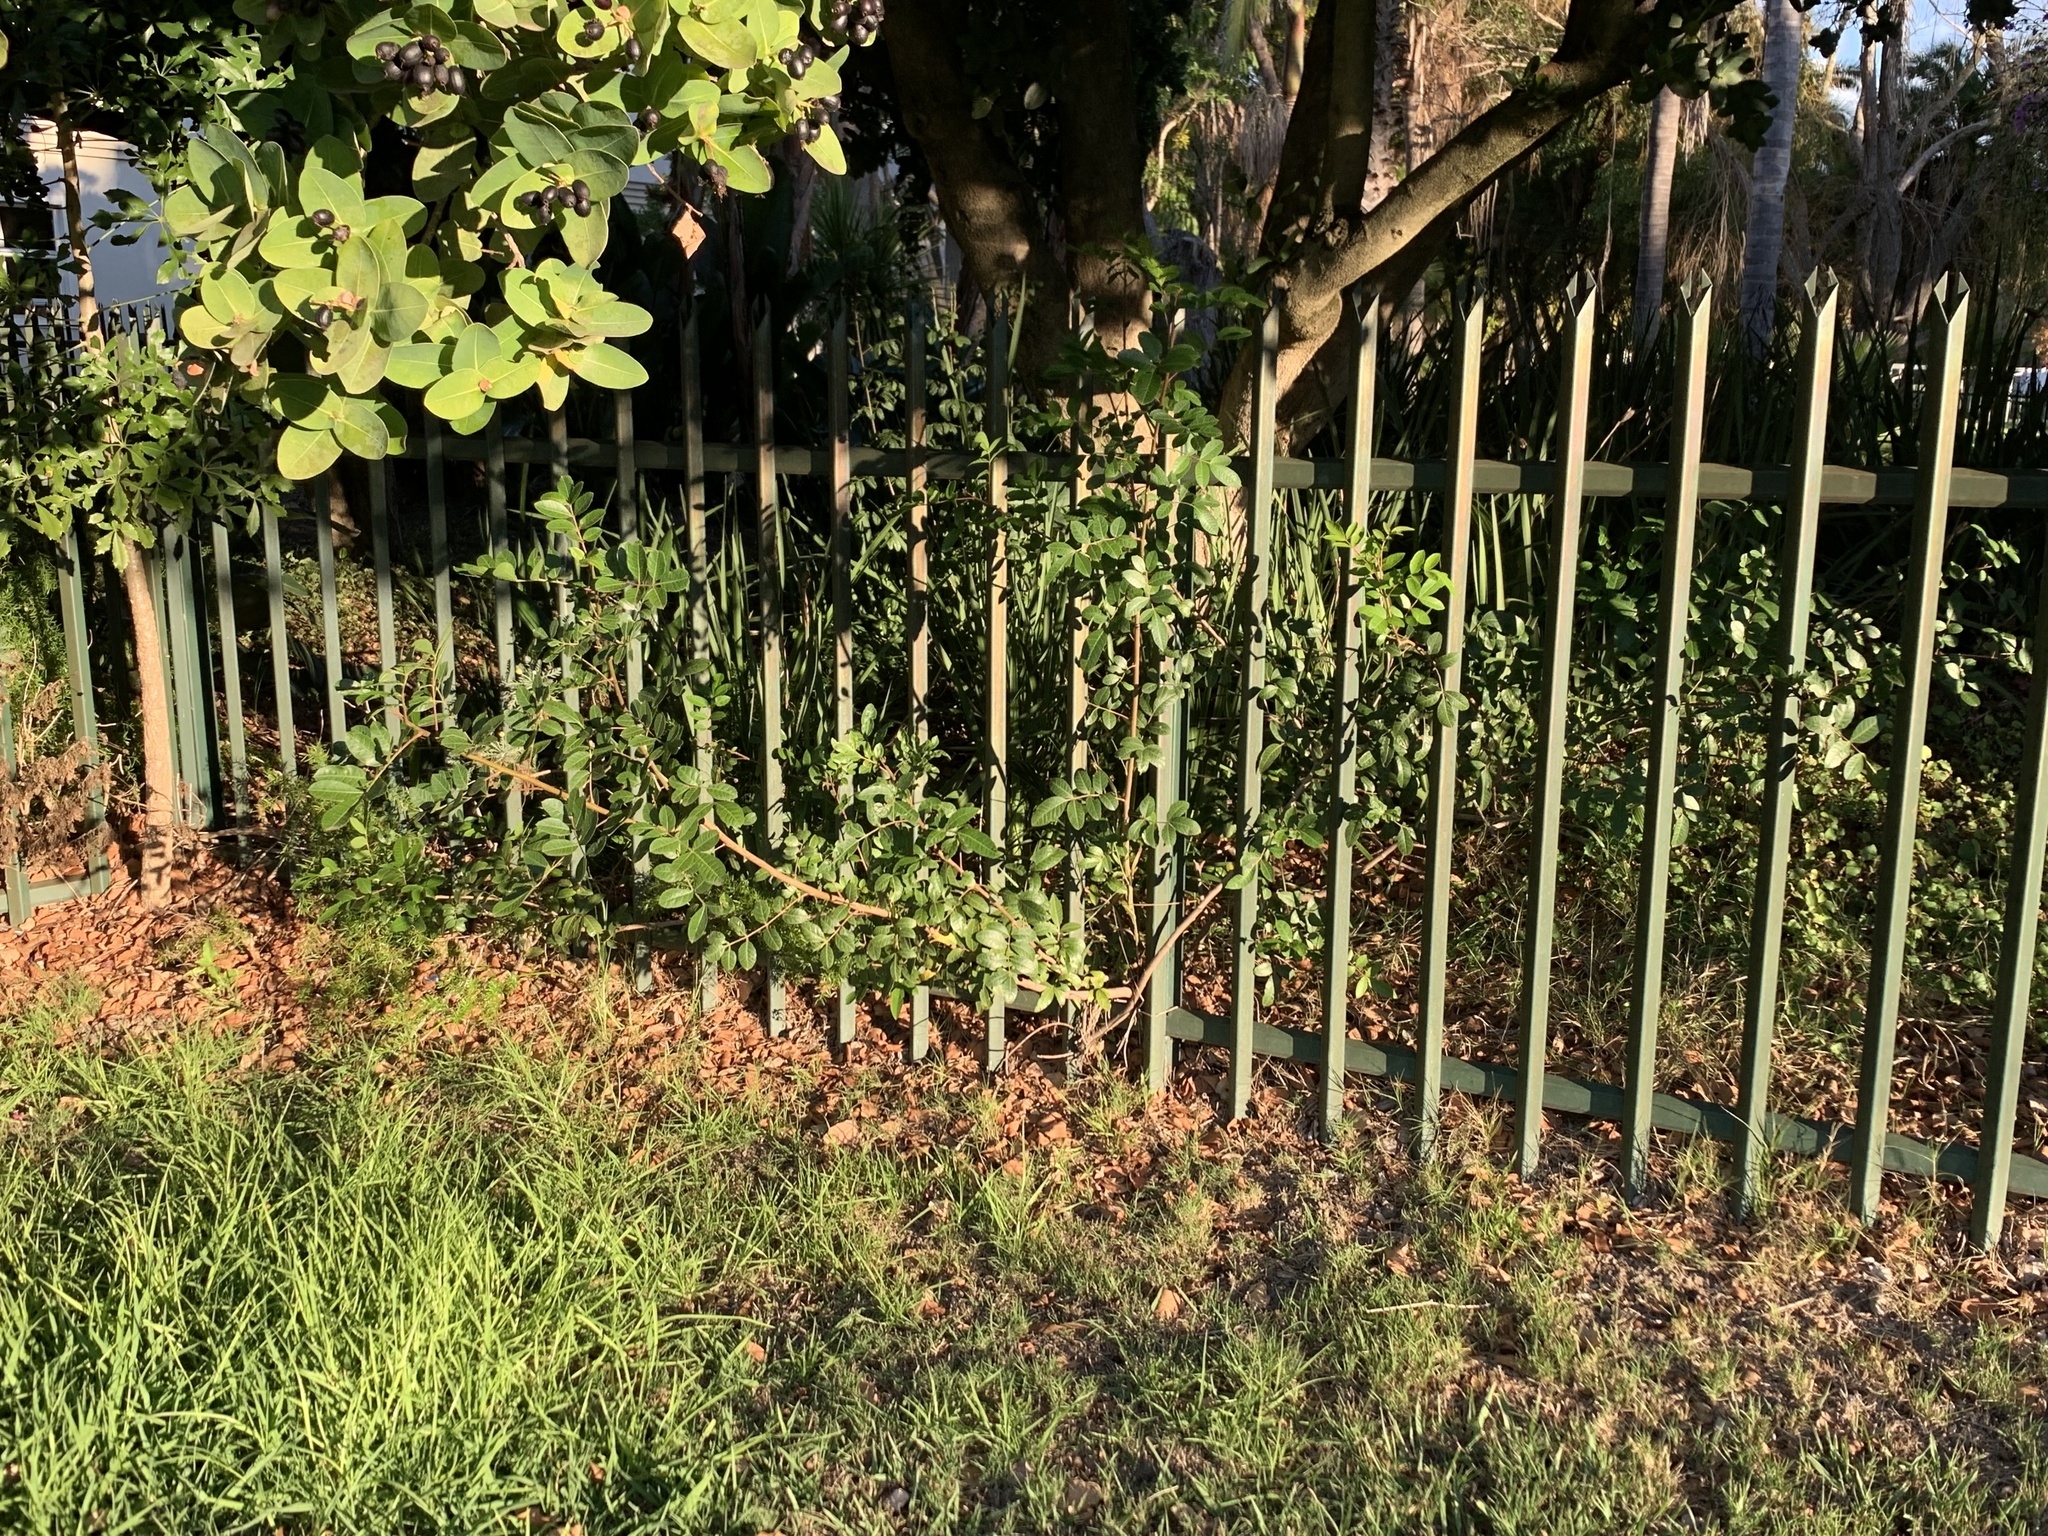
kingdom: Plantae
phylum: Tracheophyta
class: Magnoliopsida
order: Sapindales
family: Anacardiaceae
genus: Schinus
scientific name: Schinus terebinthifolia
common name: Brazilian peppertree
